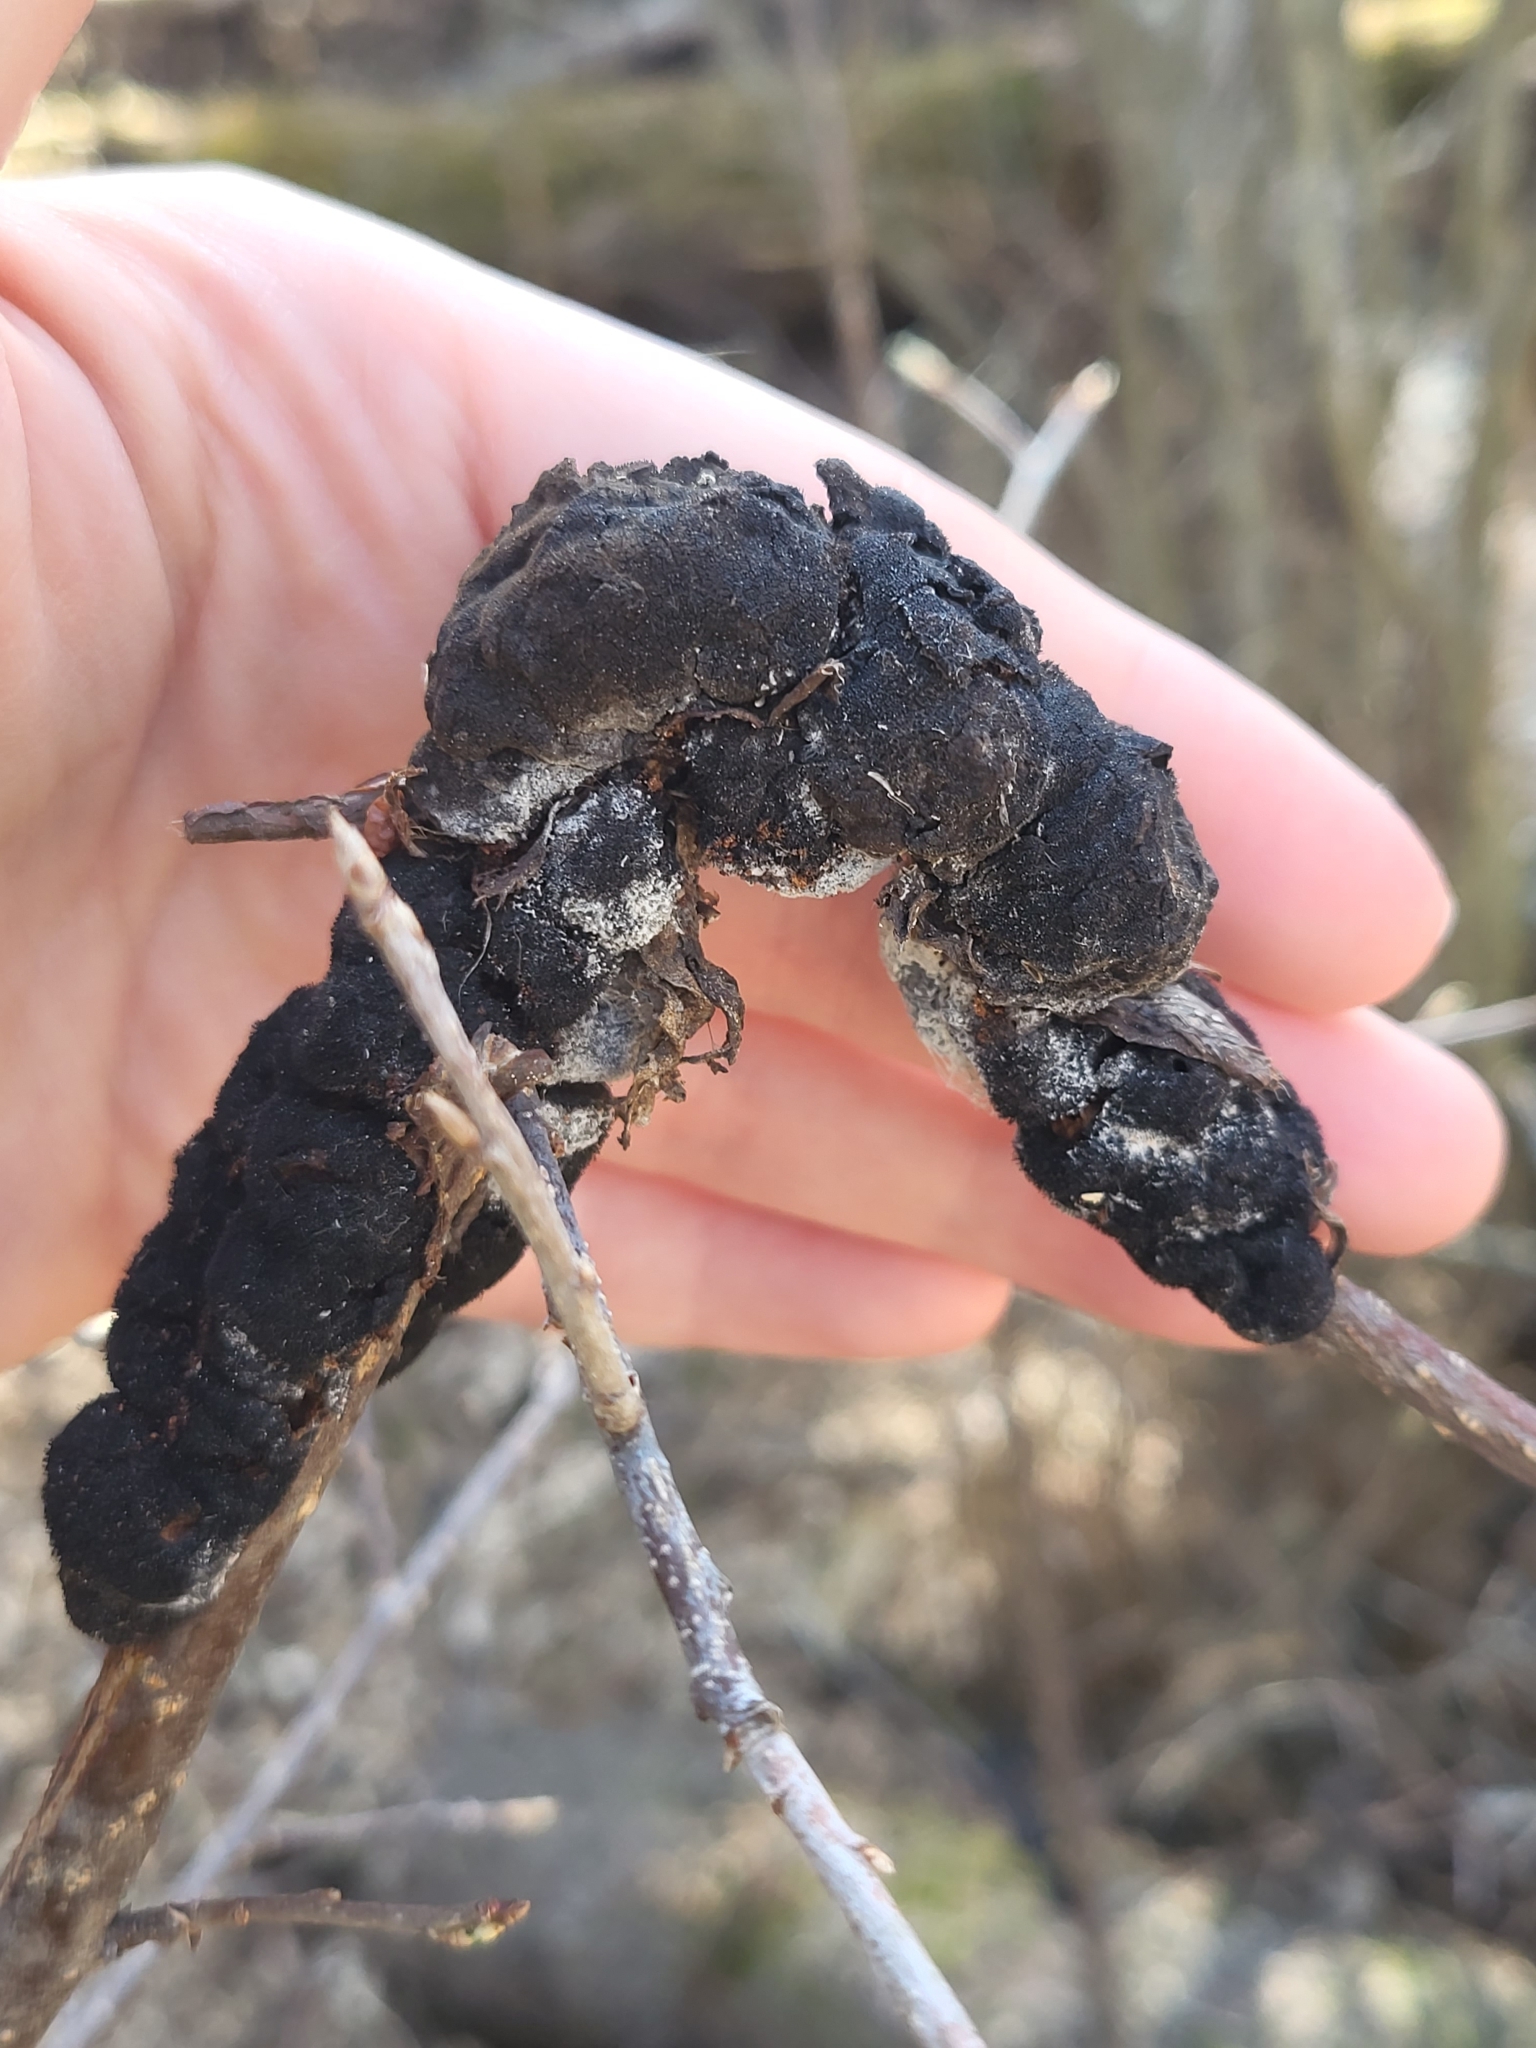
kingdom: Fungi
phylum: Ascomycota
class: Dothideomycetes
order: Venturiales
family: Venturiaceae
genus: Apiosporina
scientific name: Apiosporina morbosa
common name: Black knot
